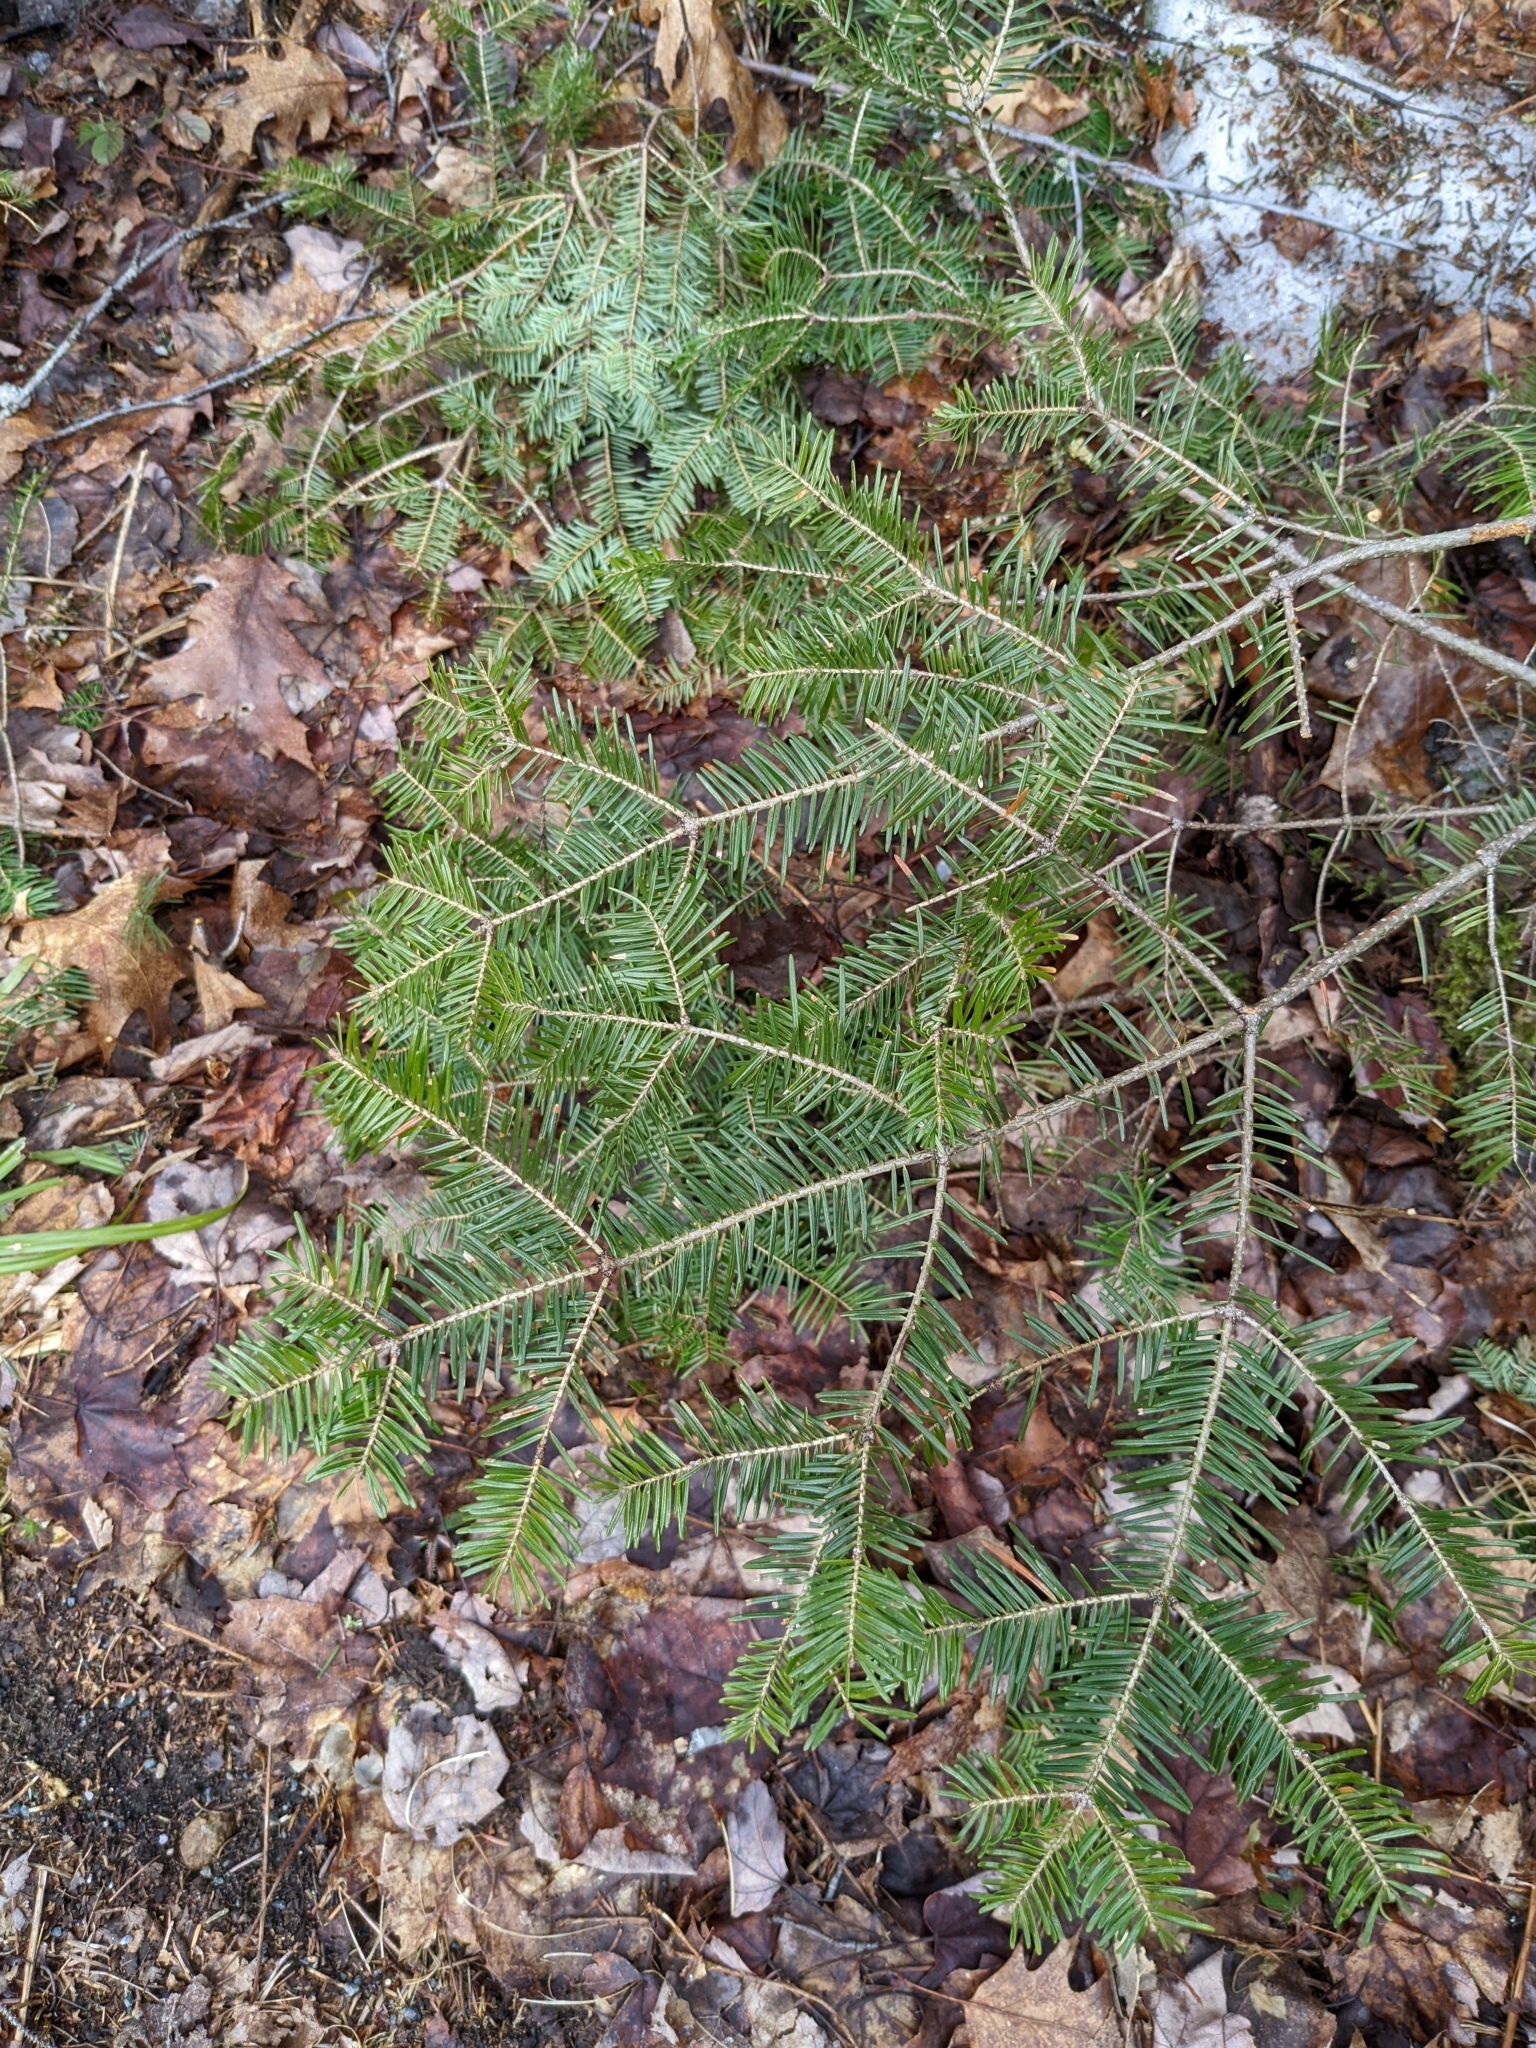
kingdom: Plantae
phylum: Tracheophyta
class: Pinopsida
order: Pinales
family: Pinaceae
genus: Abies
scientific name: Abies balsamea
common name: Balsam fir
